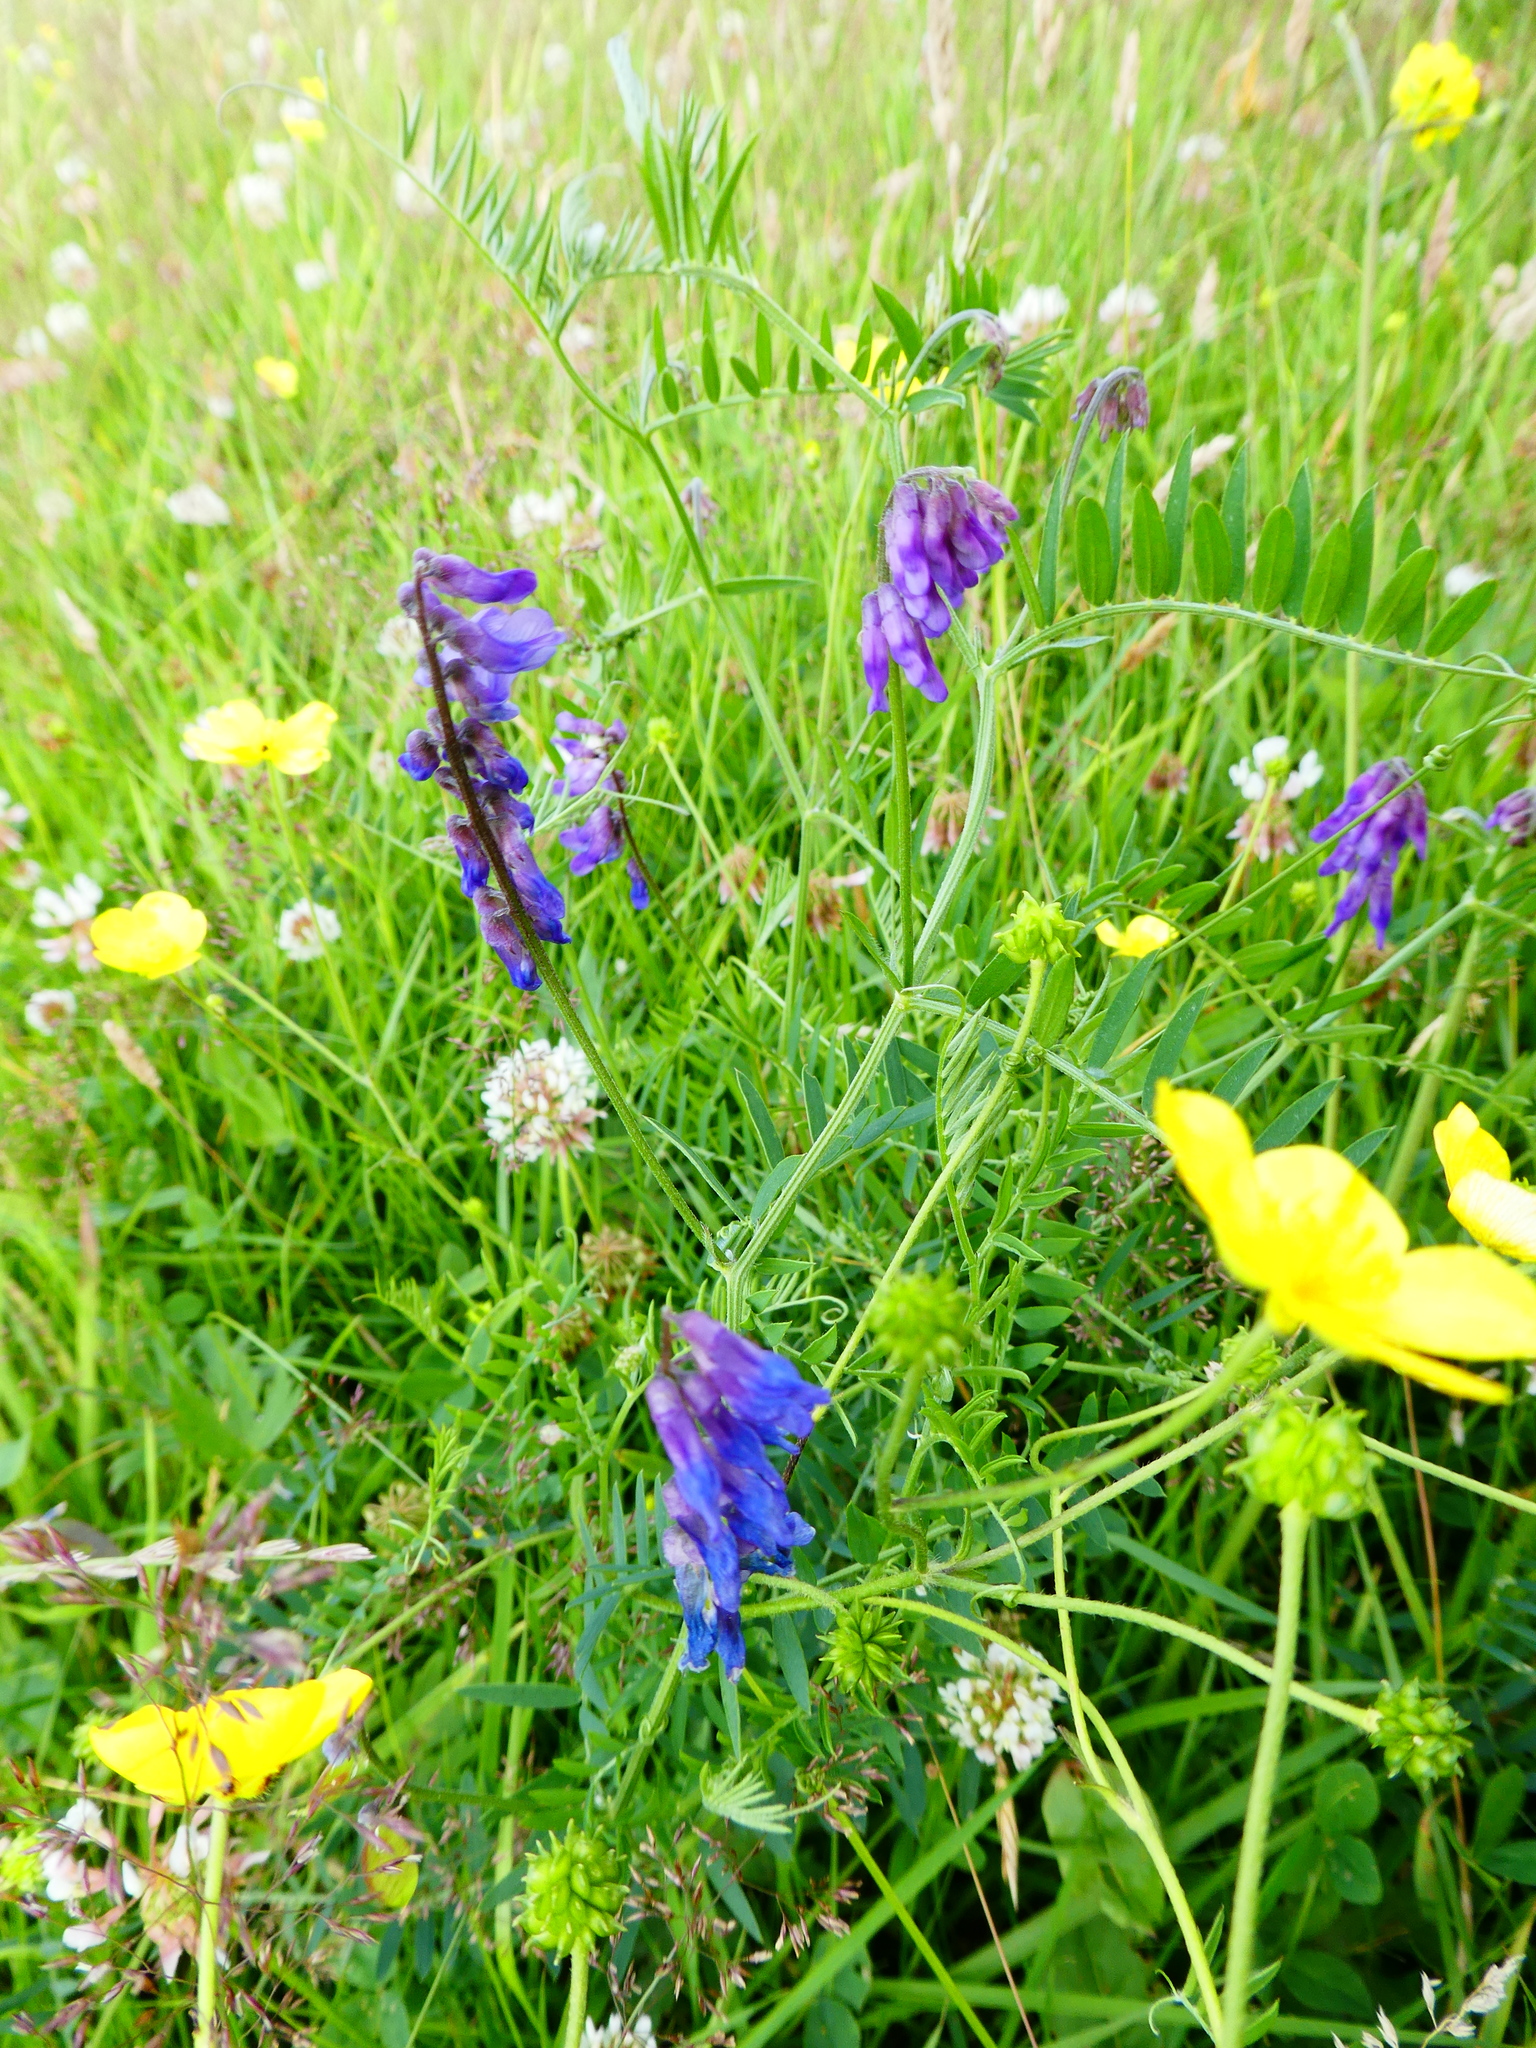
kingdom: Plantae
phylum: Tracheophyta
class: Magnoliopsida
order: Fabales
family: Fabaceae
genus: Vicia
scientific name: Vicia cracca
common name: Bird vetch
